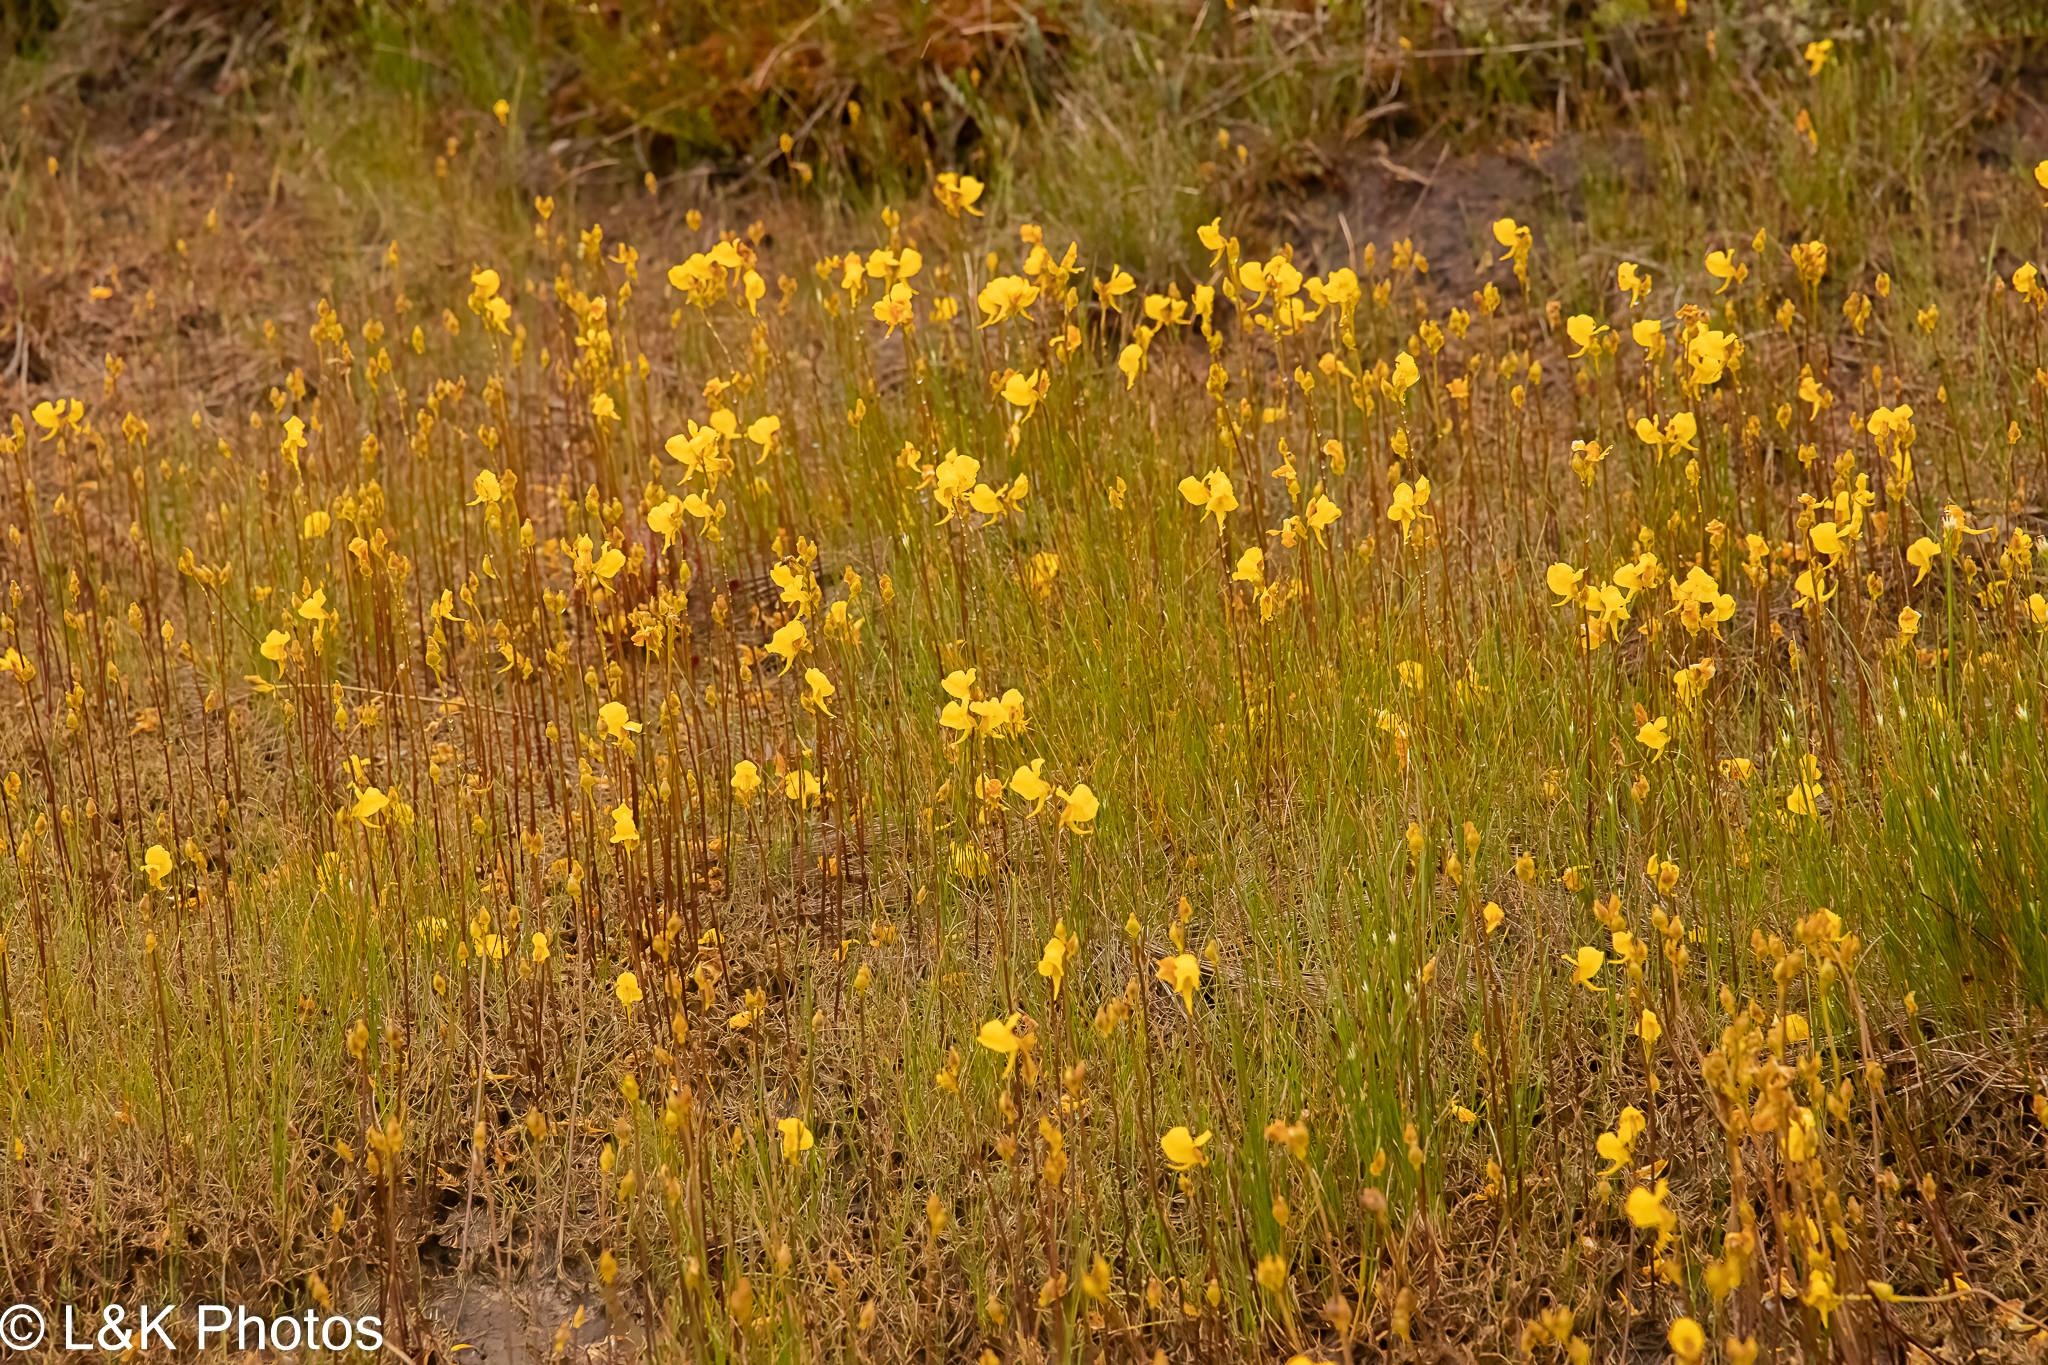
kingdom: Plantae
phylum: Tracheophyta
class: Magnoliopsida
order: Lamiales
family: Lentibulariaceae
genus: Utricularia
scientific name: Utricularia cornuta
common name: Horned bladderwort
